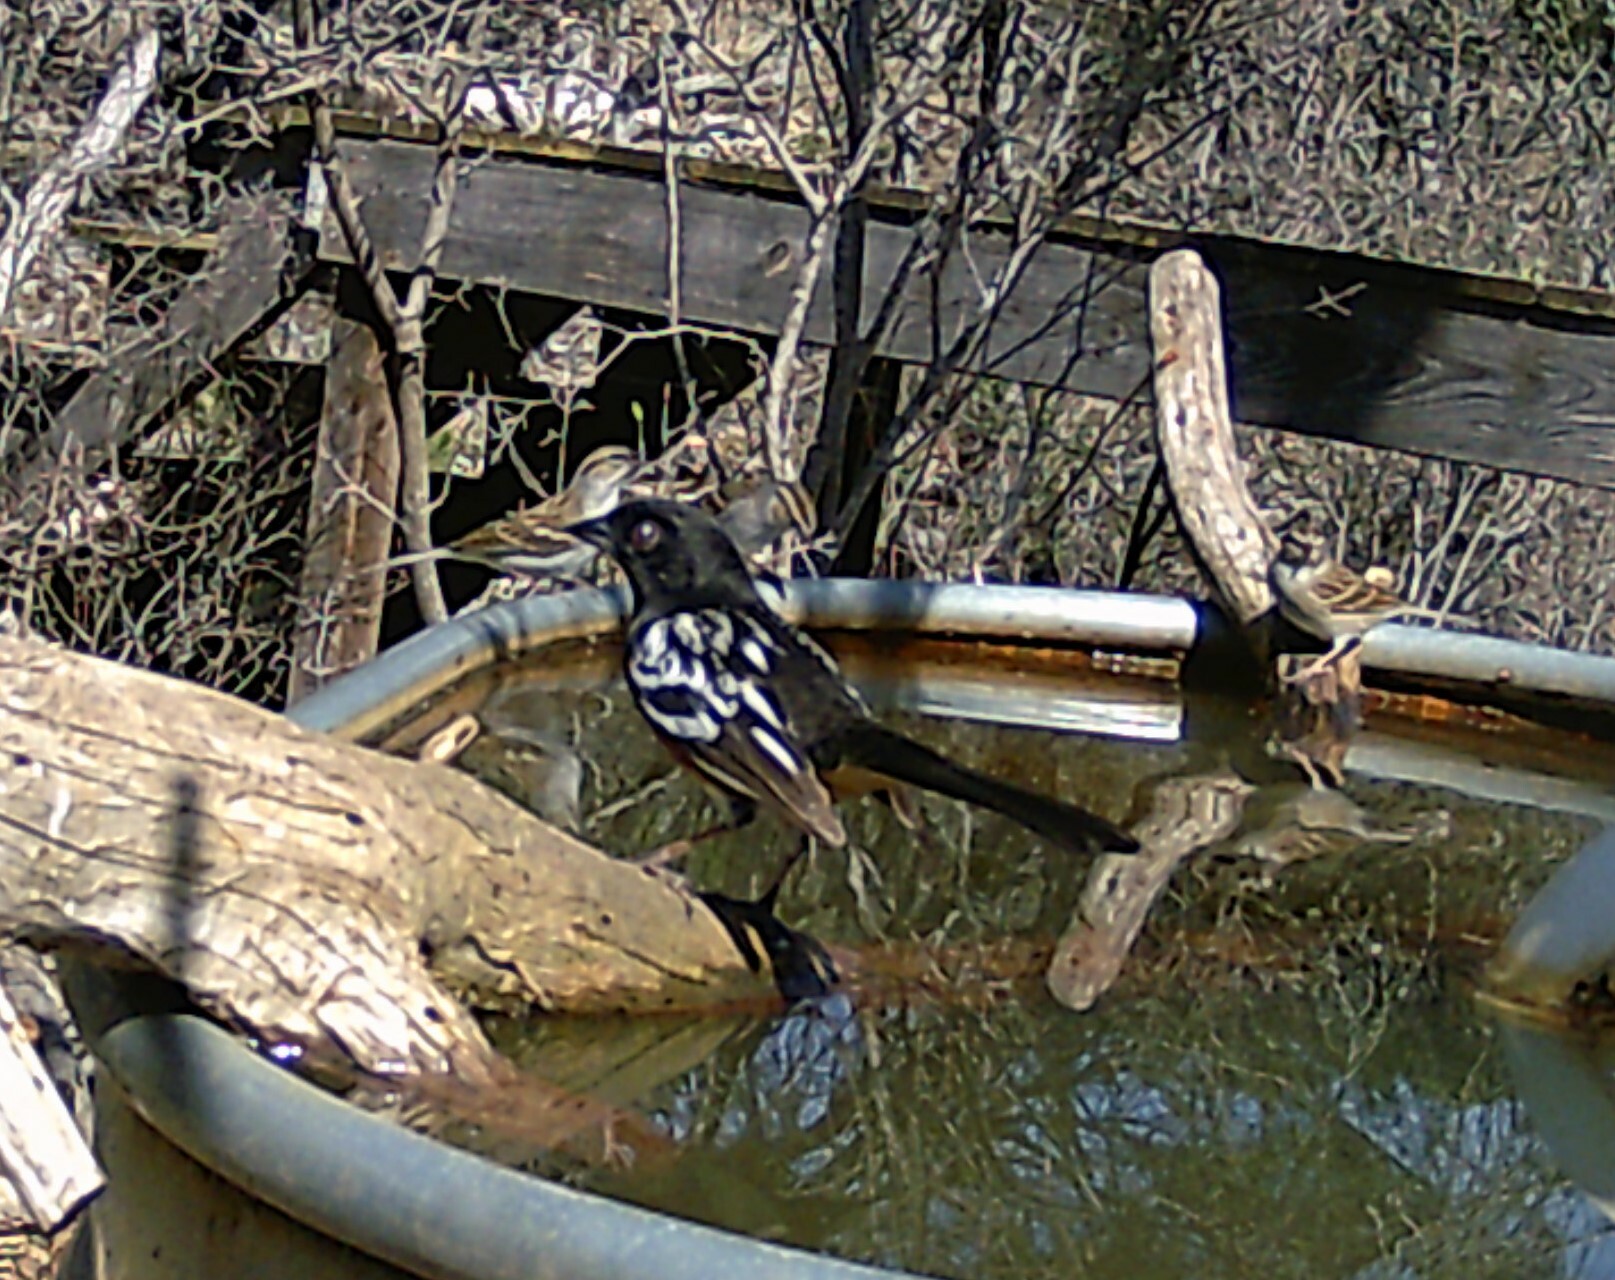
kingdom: Animalia
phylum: Chordata
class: Aves
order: Passeriformes
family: Passerellidae
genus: Pipilo
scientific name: Pipilo maculatus
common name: Spotted towhee
